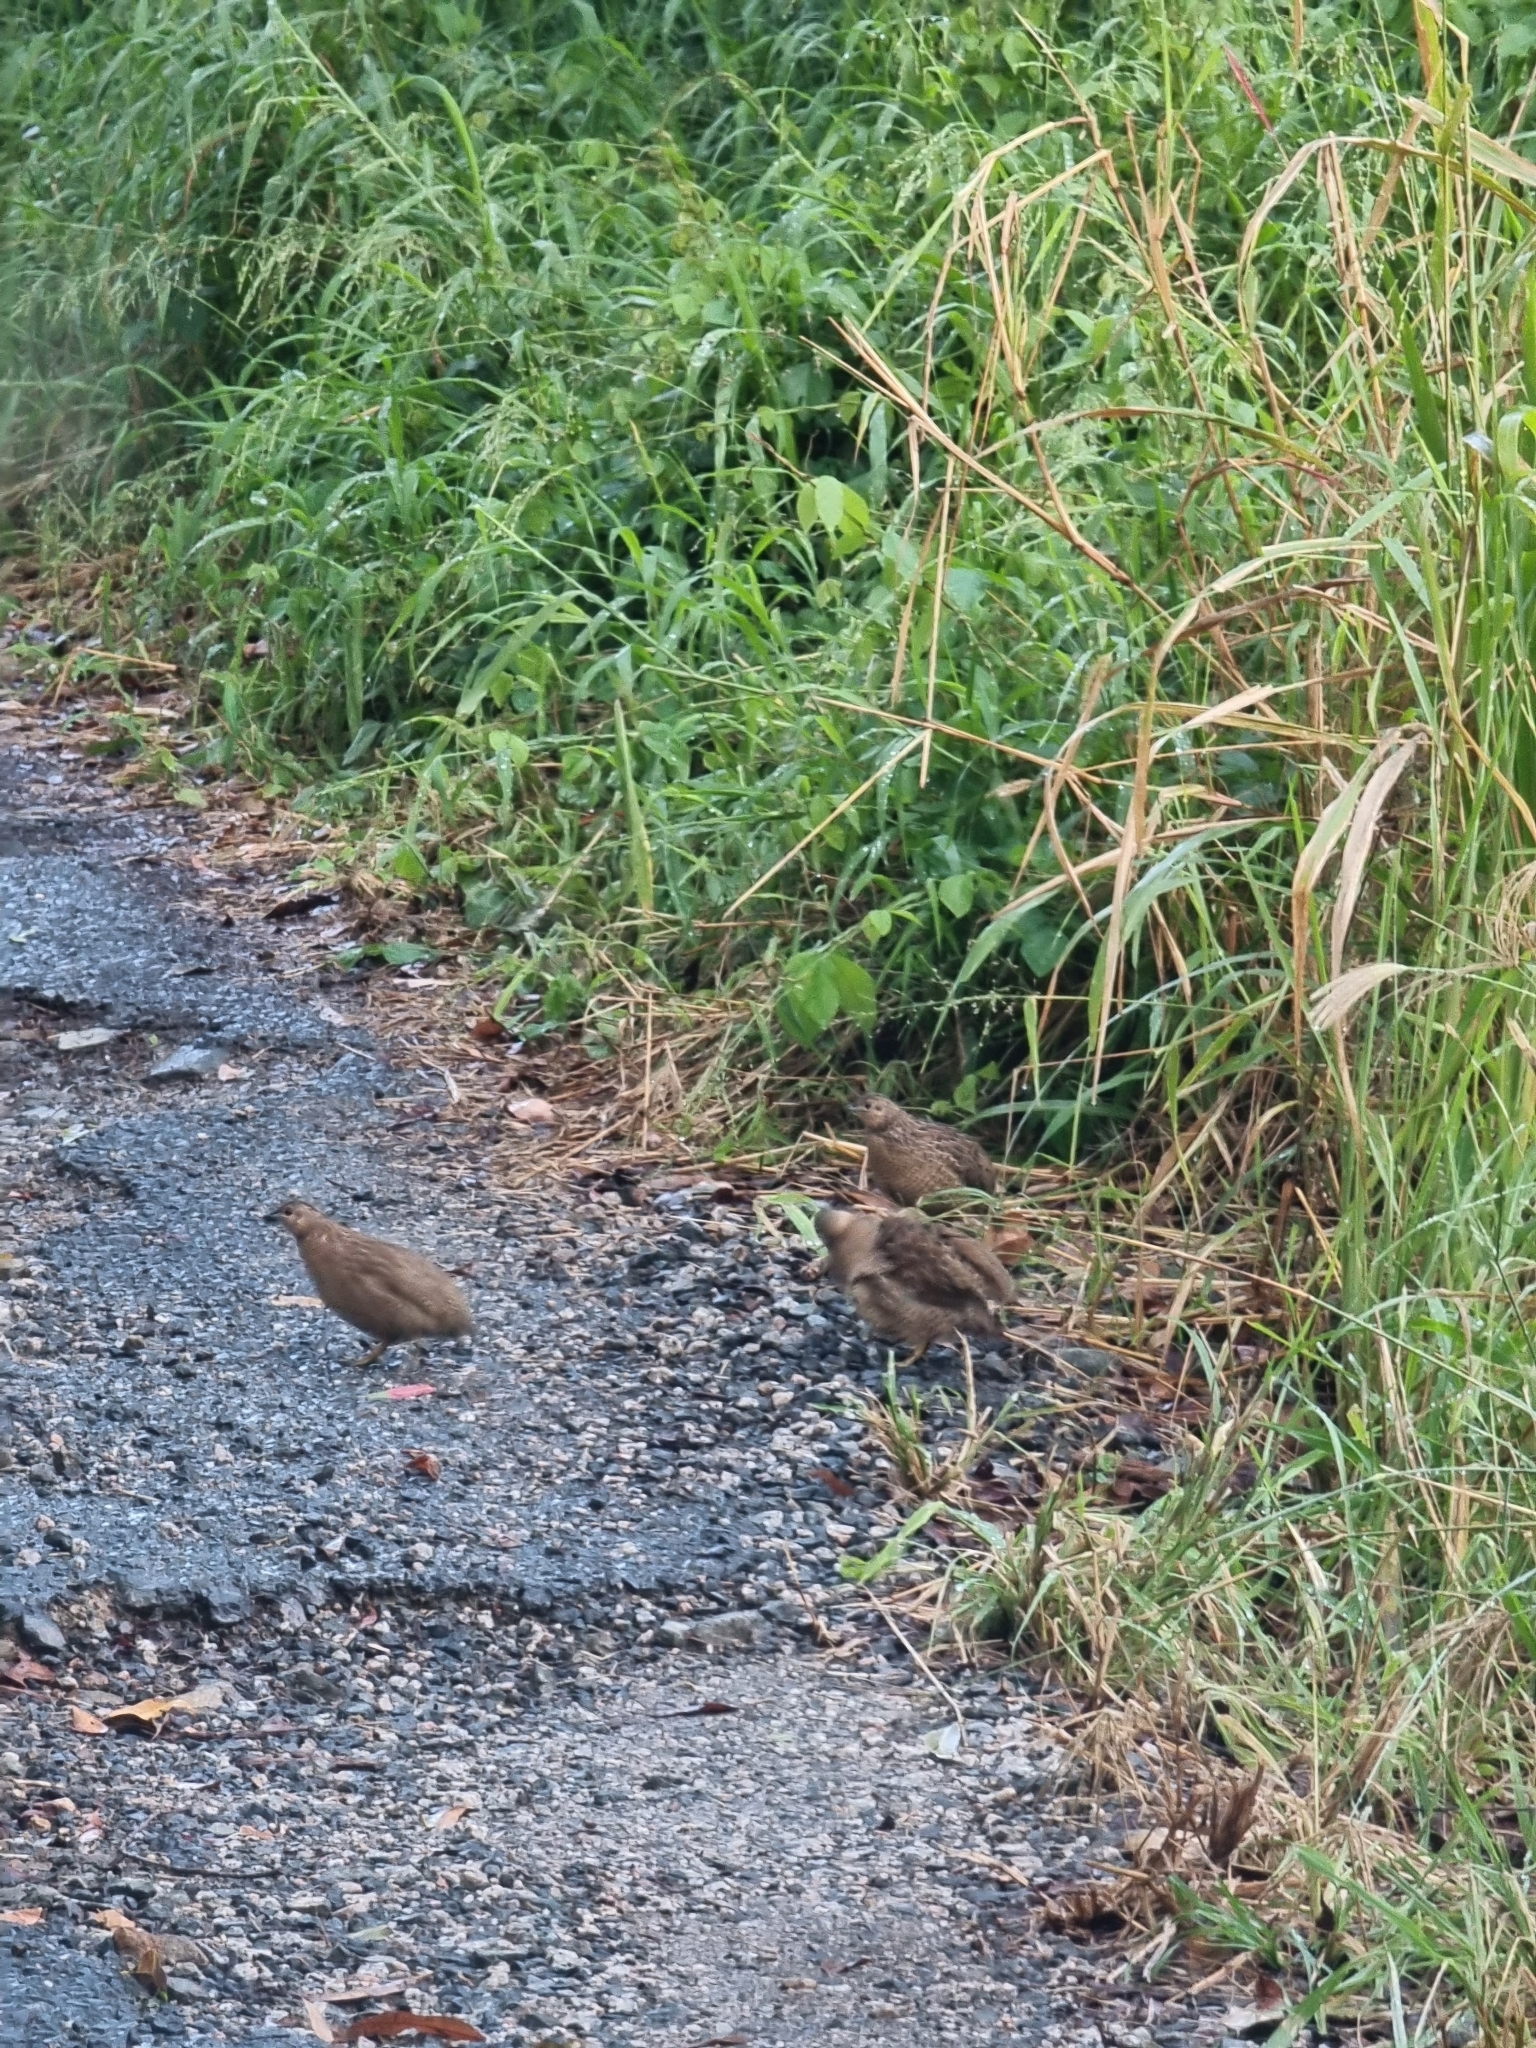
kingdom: Animalia
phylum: Chordata
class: Aves
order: Galliformes
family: Phasianidae
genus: Synoicus
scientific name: Synoicus ypsilophorus
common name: Brown quail
